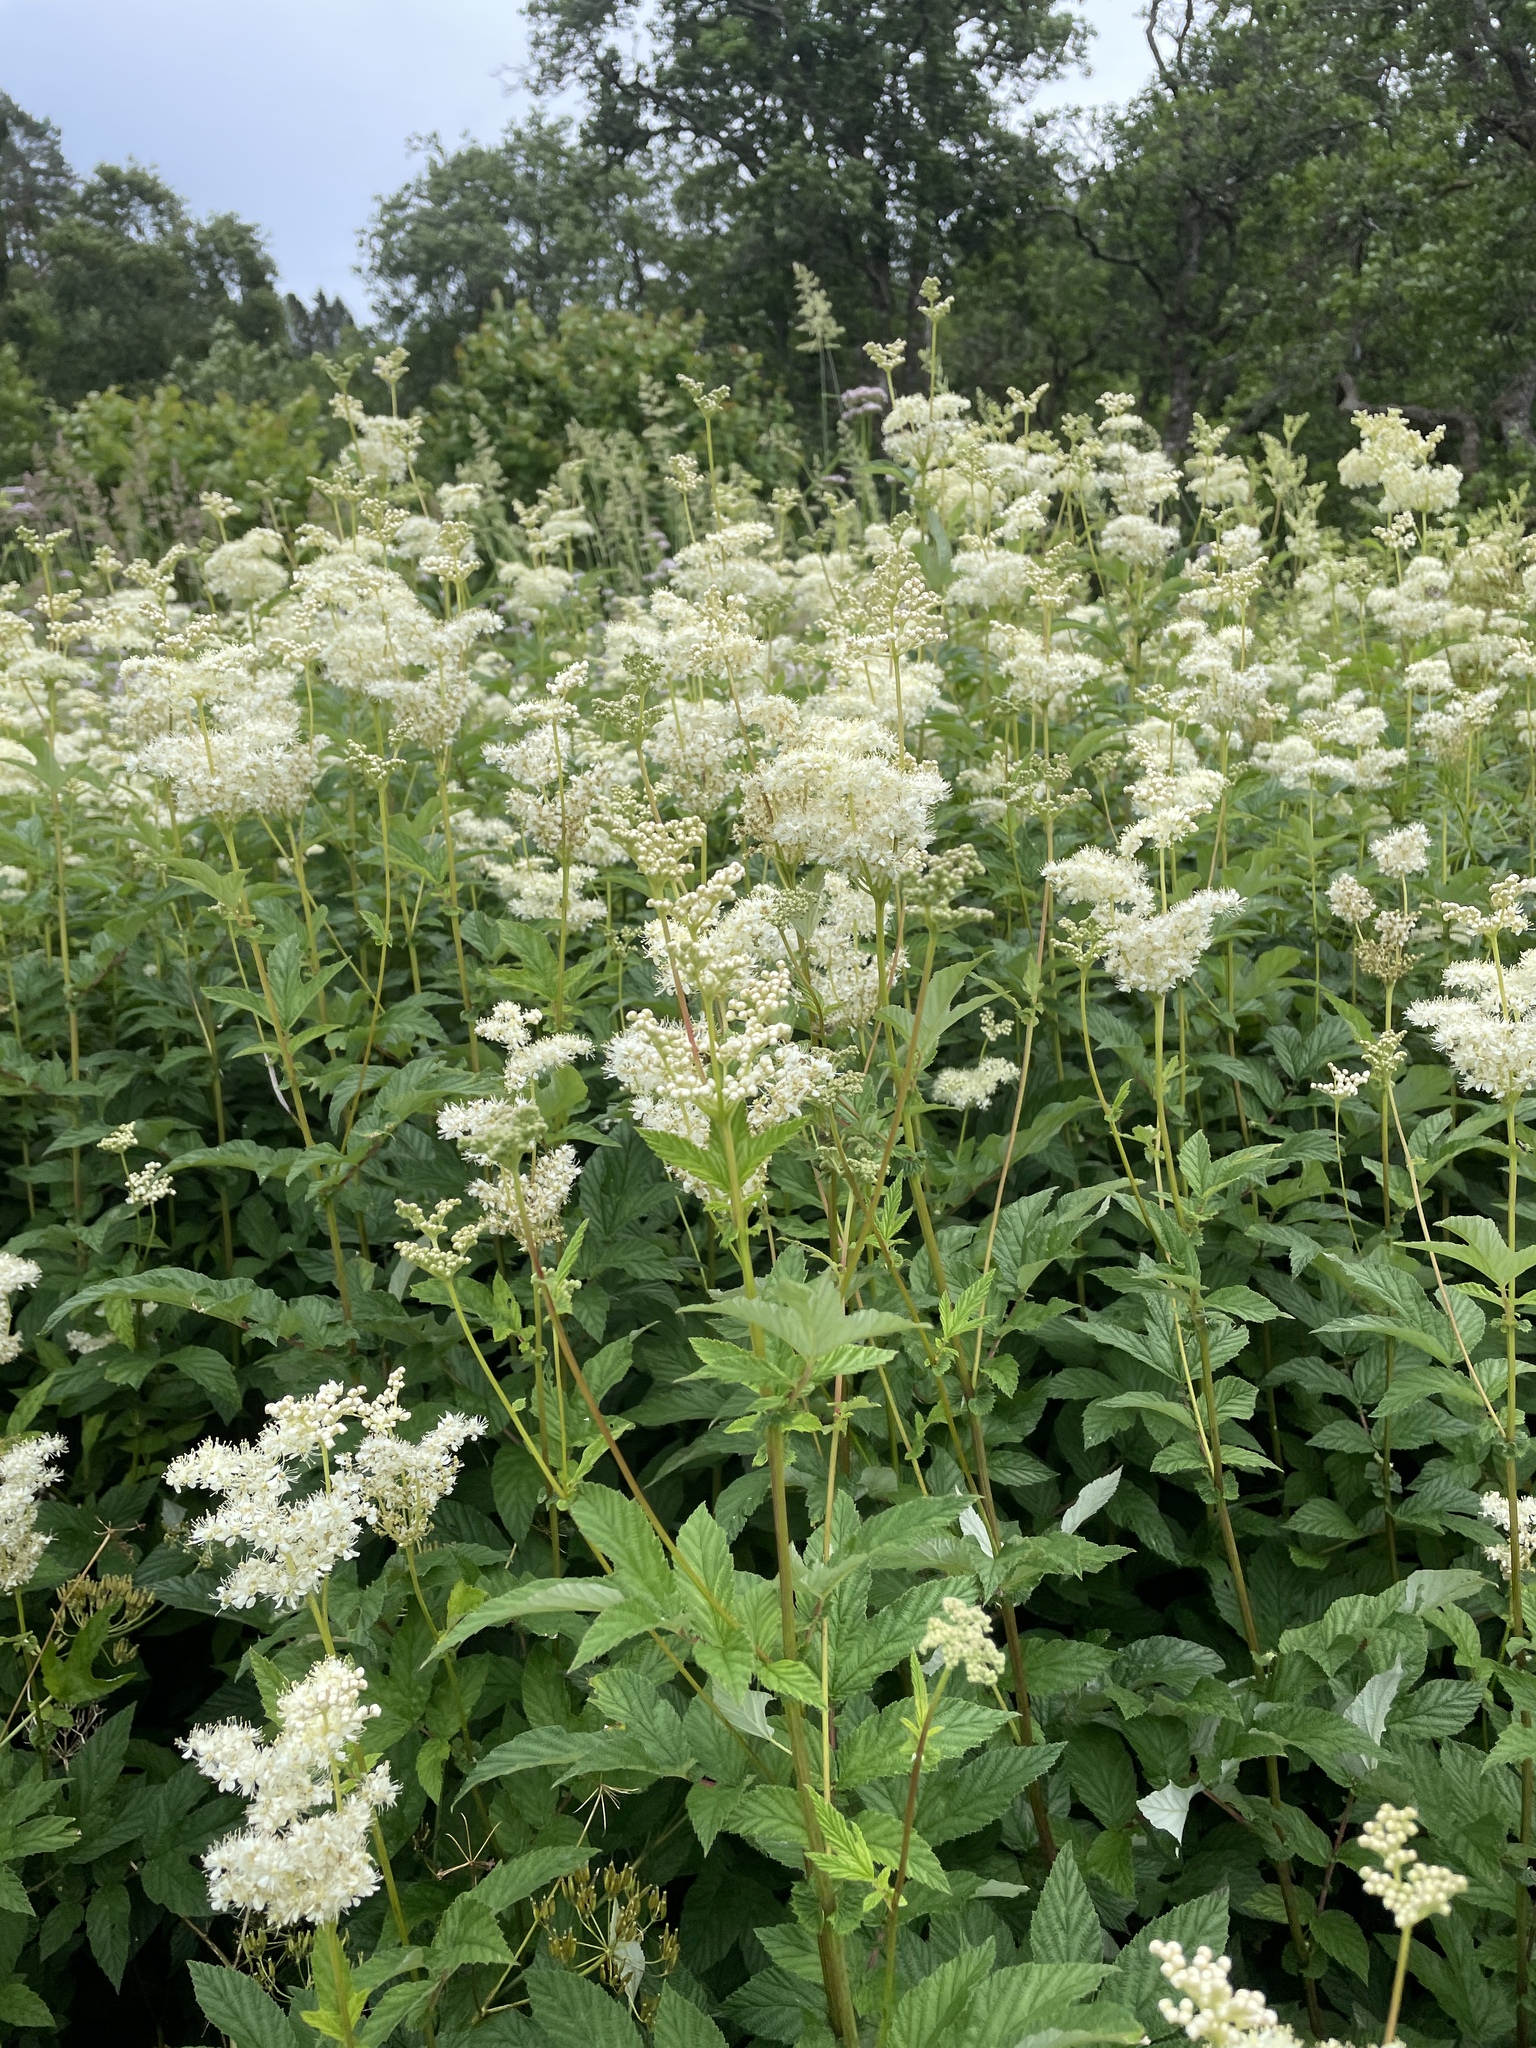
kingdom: Plantae
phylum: Tracheophyta
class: Magnoliopsida
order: Rosales
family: Rosaceae
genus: Filipendula
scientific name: Filipendula ulmaria
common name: Meadowsweet
